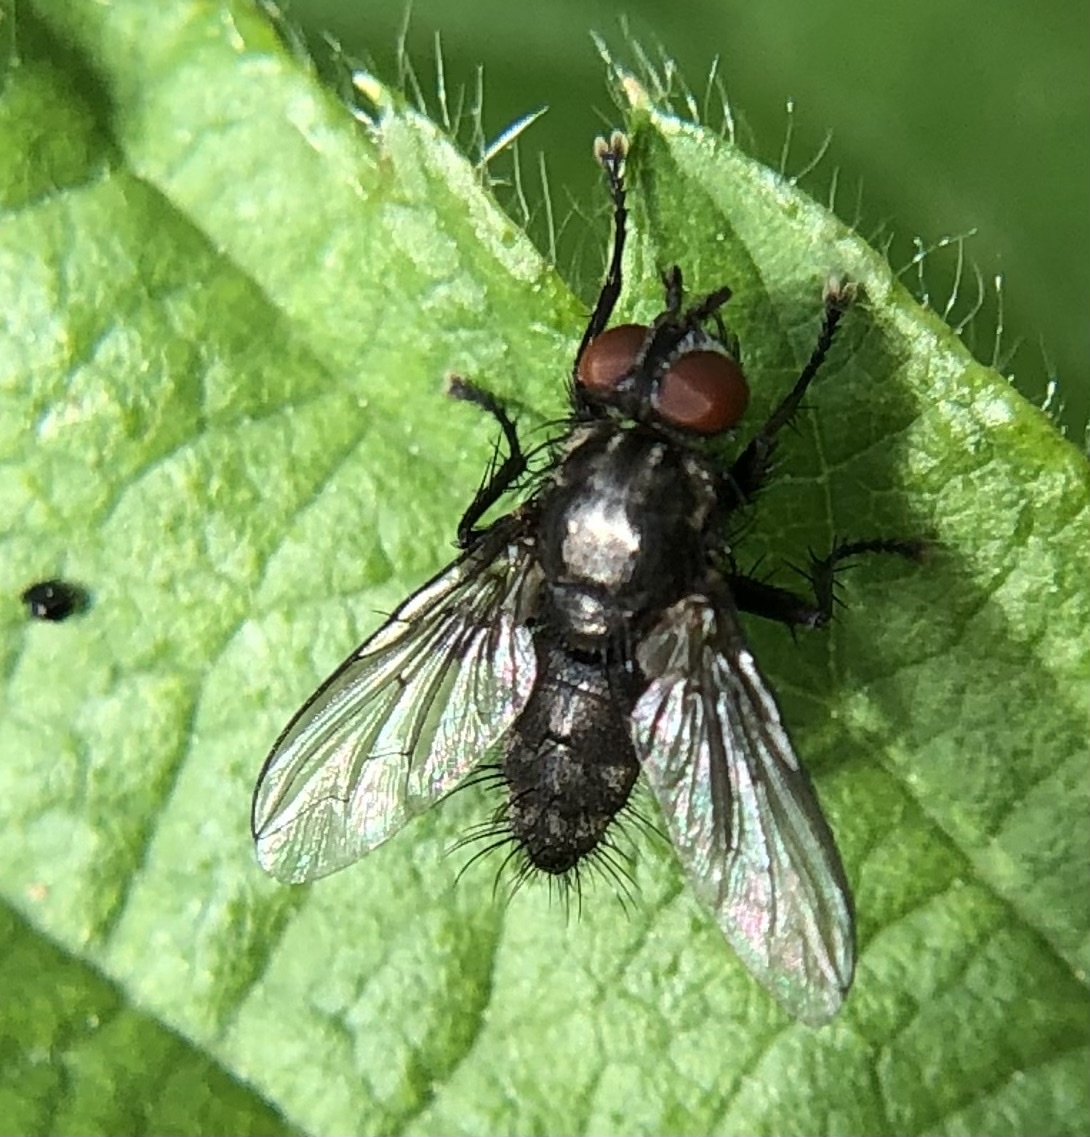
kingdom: Animalia
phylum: Arthropoda
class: Insecta
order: Diptera
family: Sarcophagidae
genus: Sarcophaga
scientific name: Sarcophaga dissimilis
